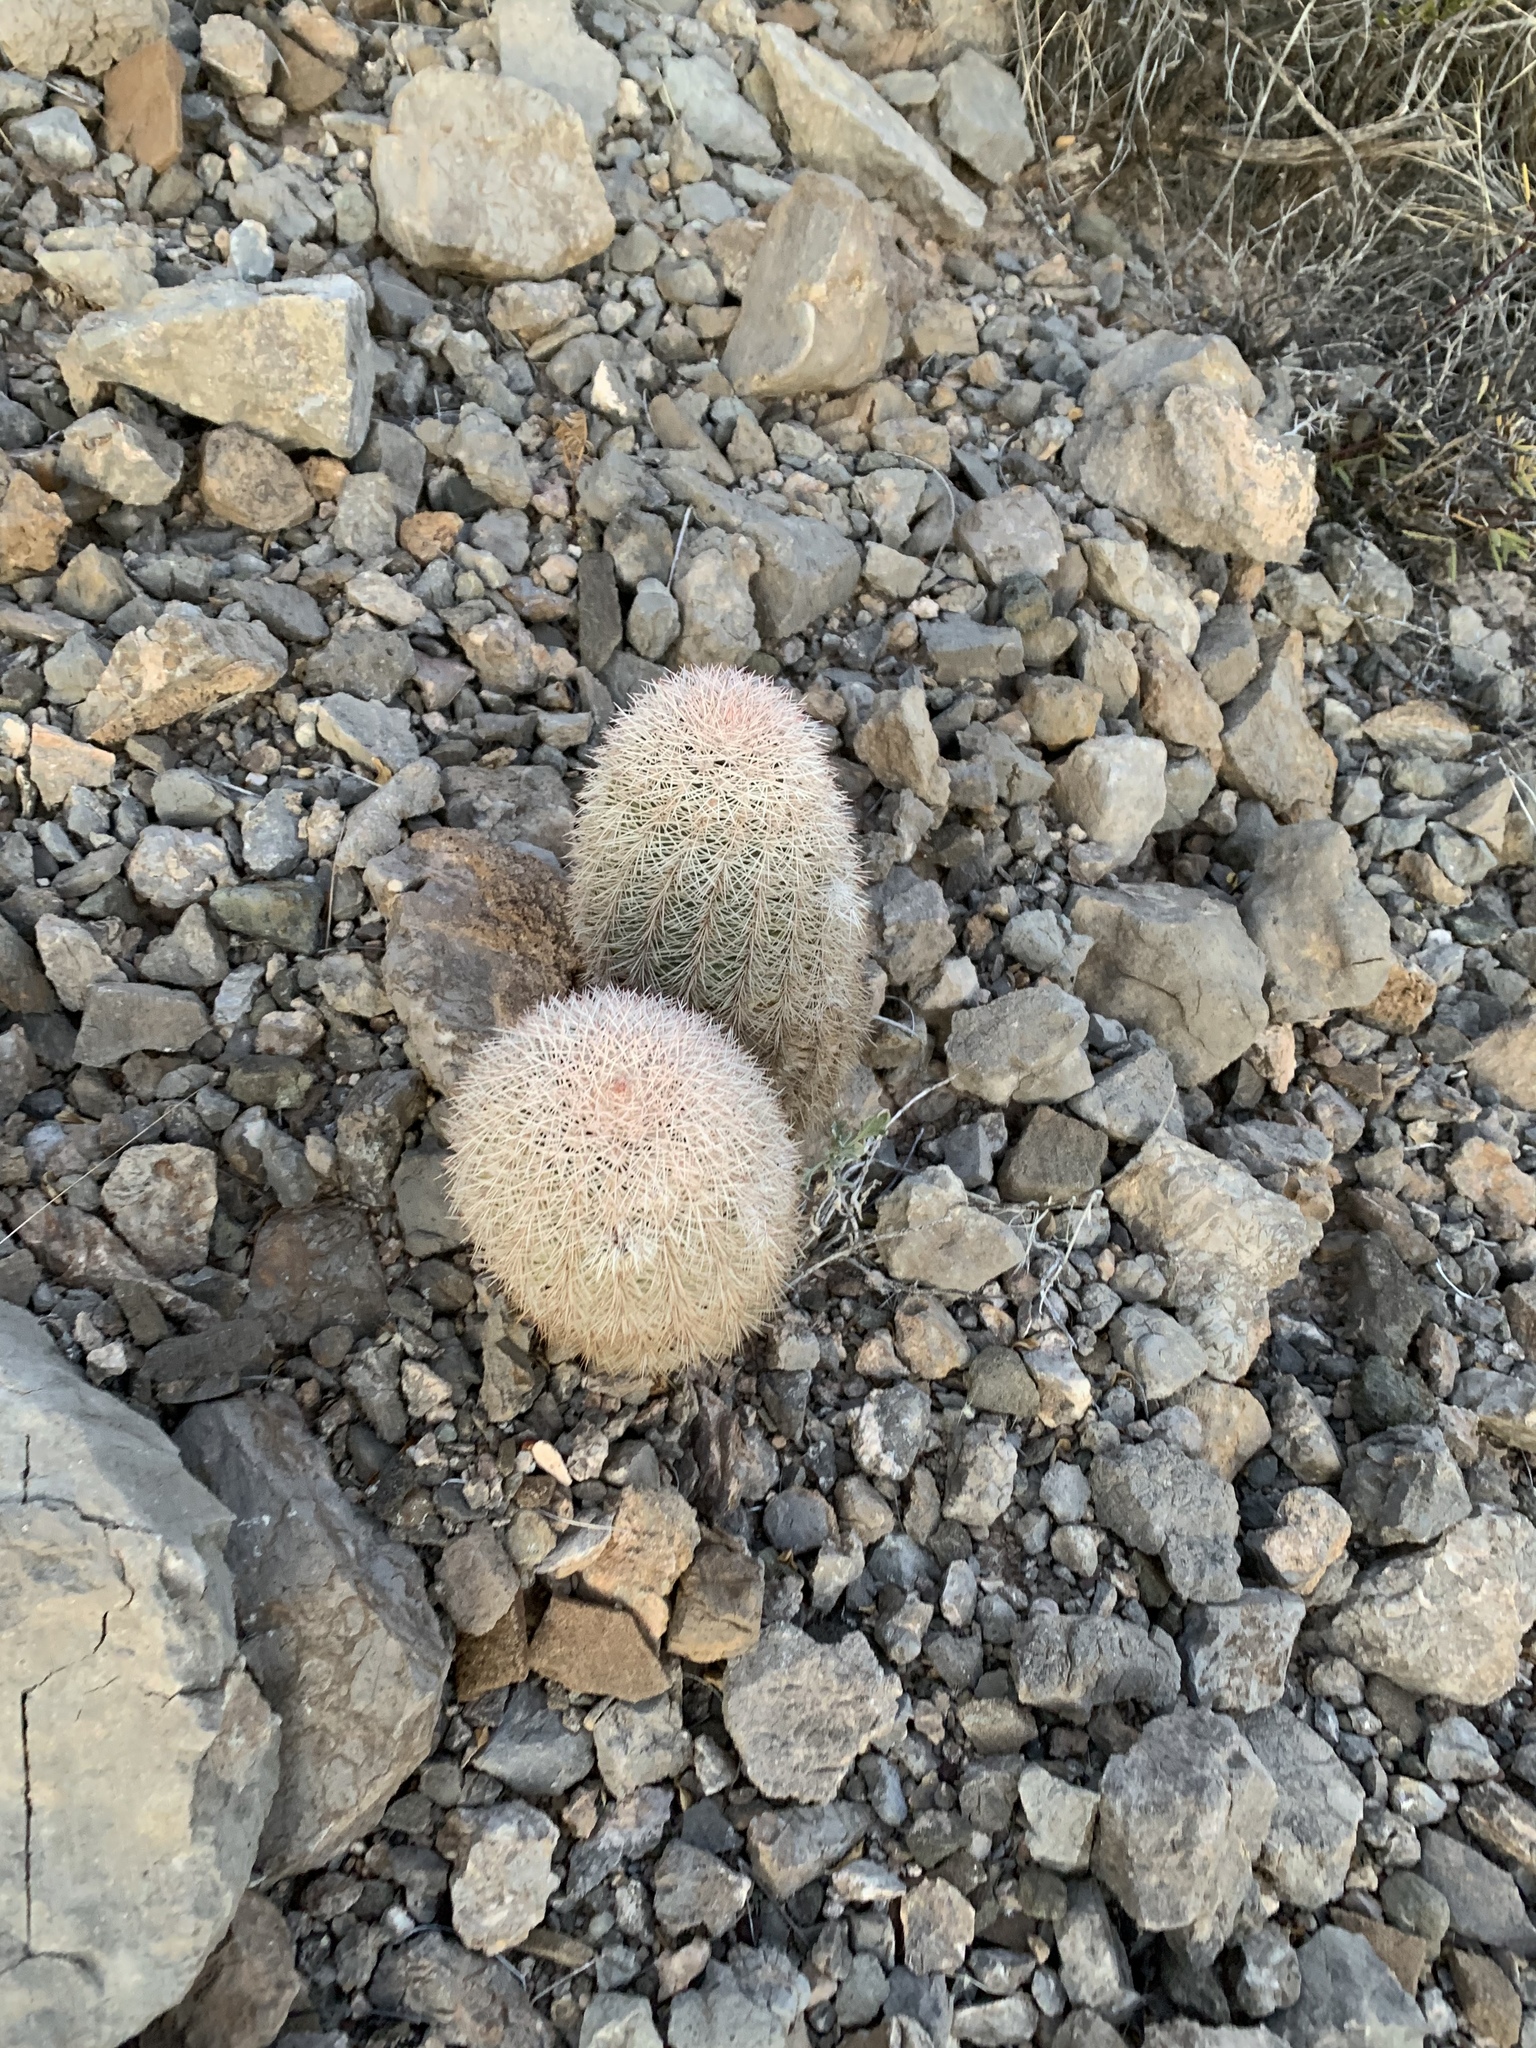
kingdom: Plantae
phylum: Tracheophyta
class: Magnoliopsida
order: Caryophyllales
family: Cactaceae
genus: Echinocereus
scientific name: Echinocereus dasyacanthus
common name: Spiny hedgehog cactus
